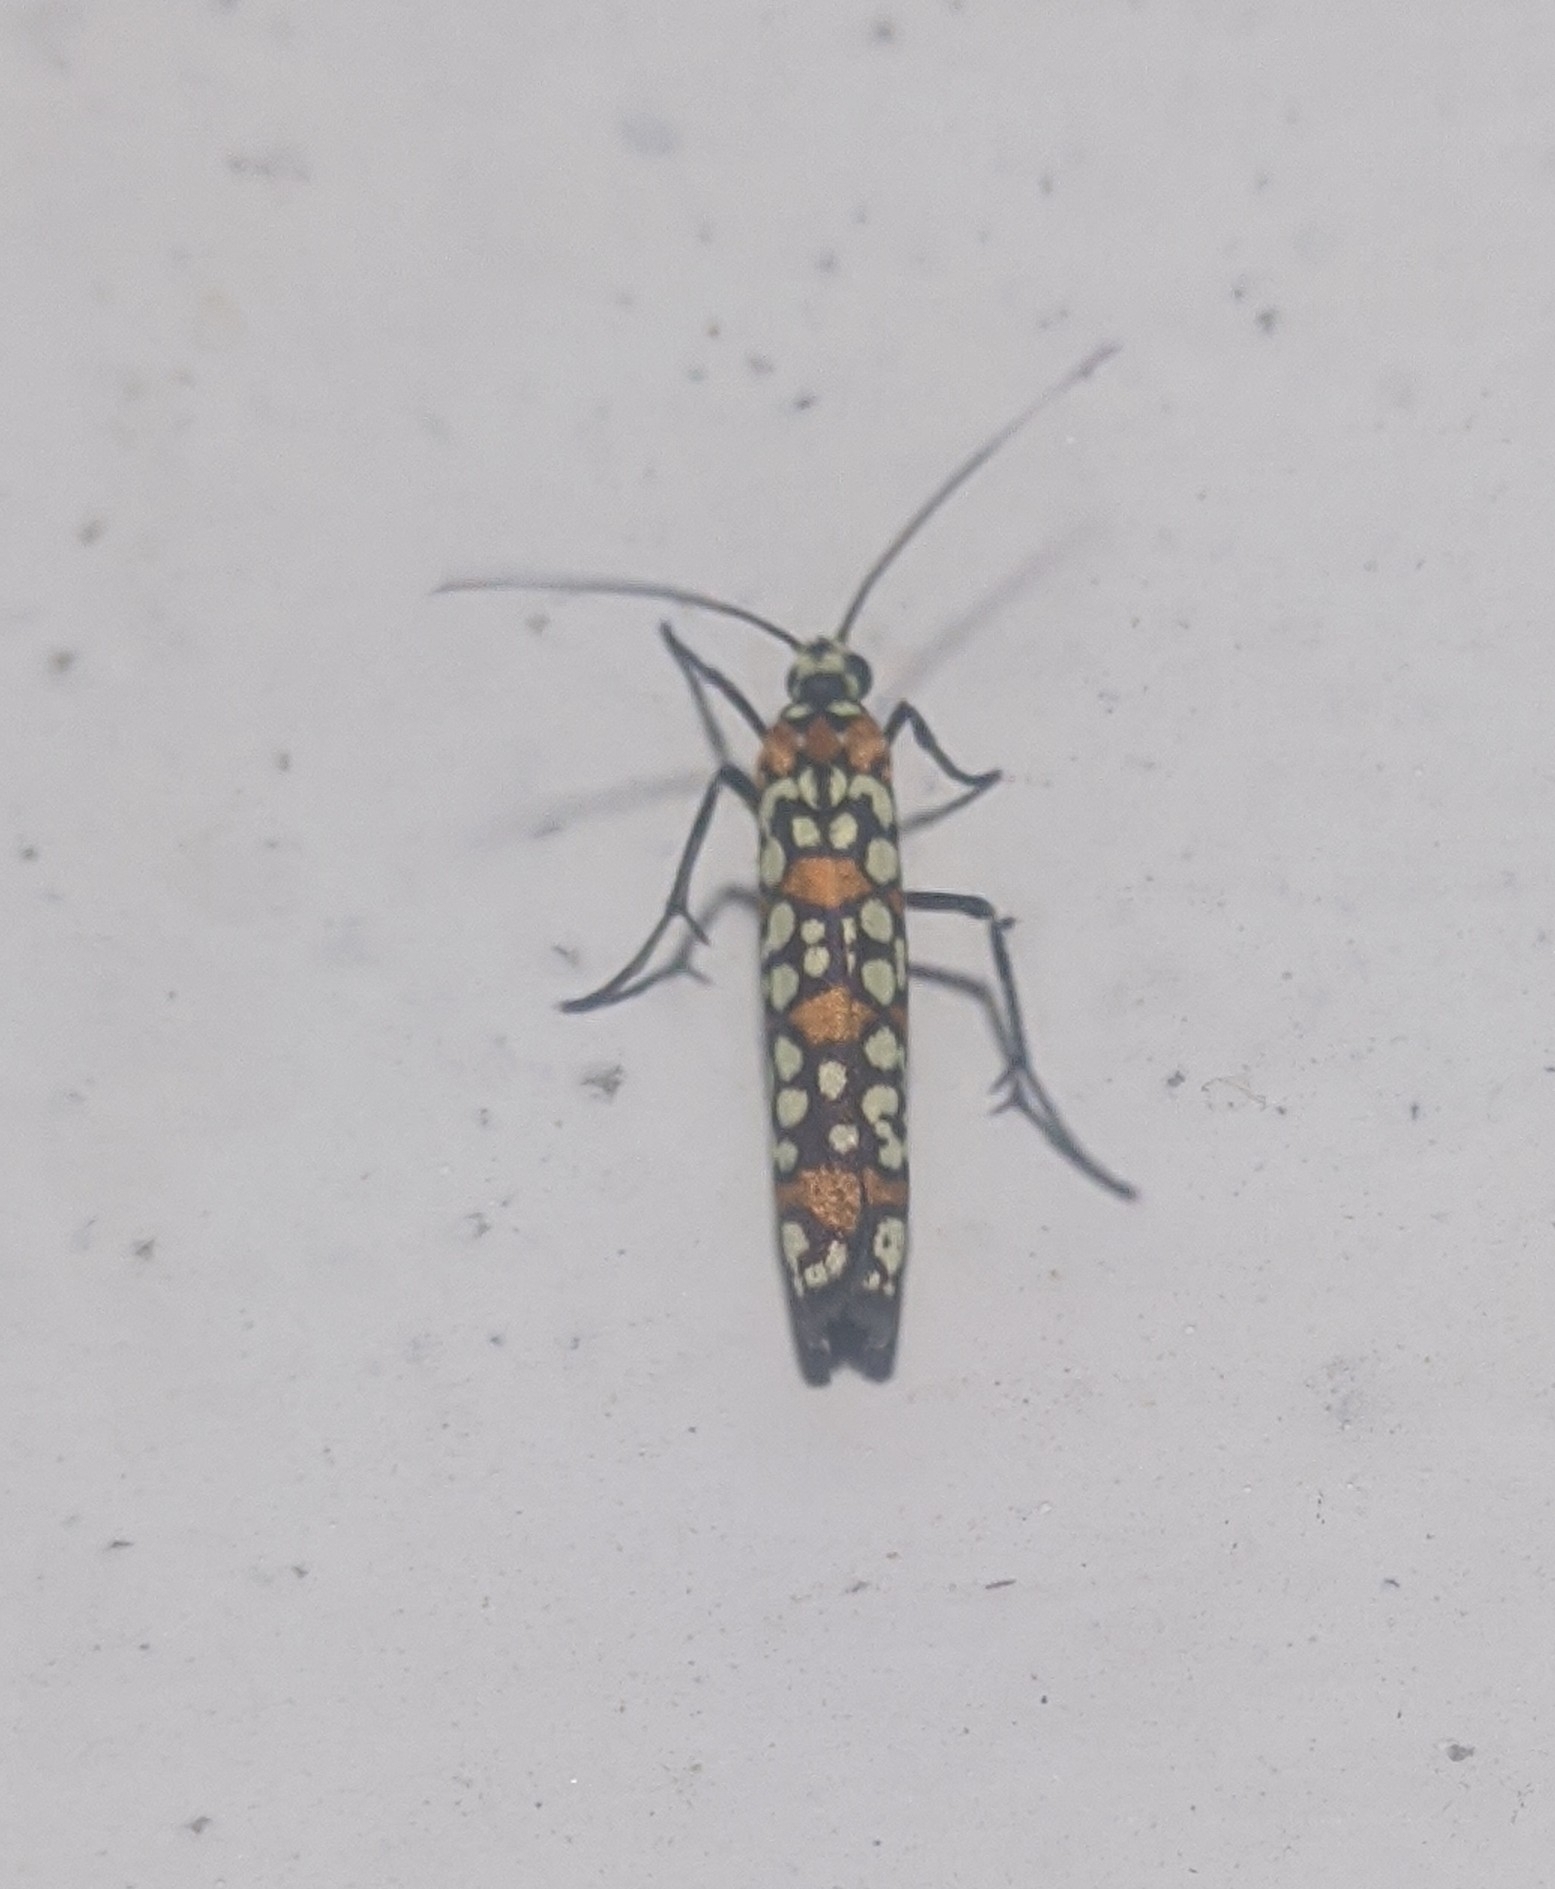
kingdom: Animalia
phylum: Arthropoda
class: Insecta
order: Lepidoptera
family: Attevidae
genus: Atteva
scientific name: Atteva punctella
